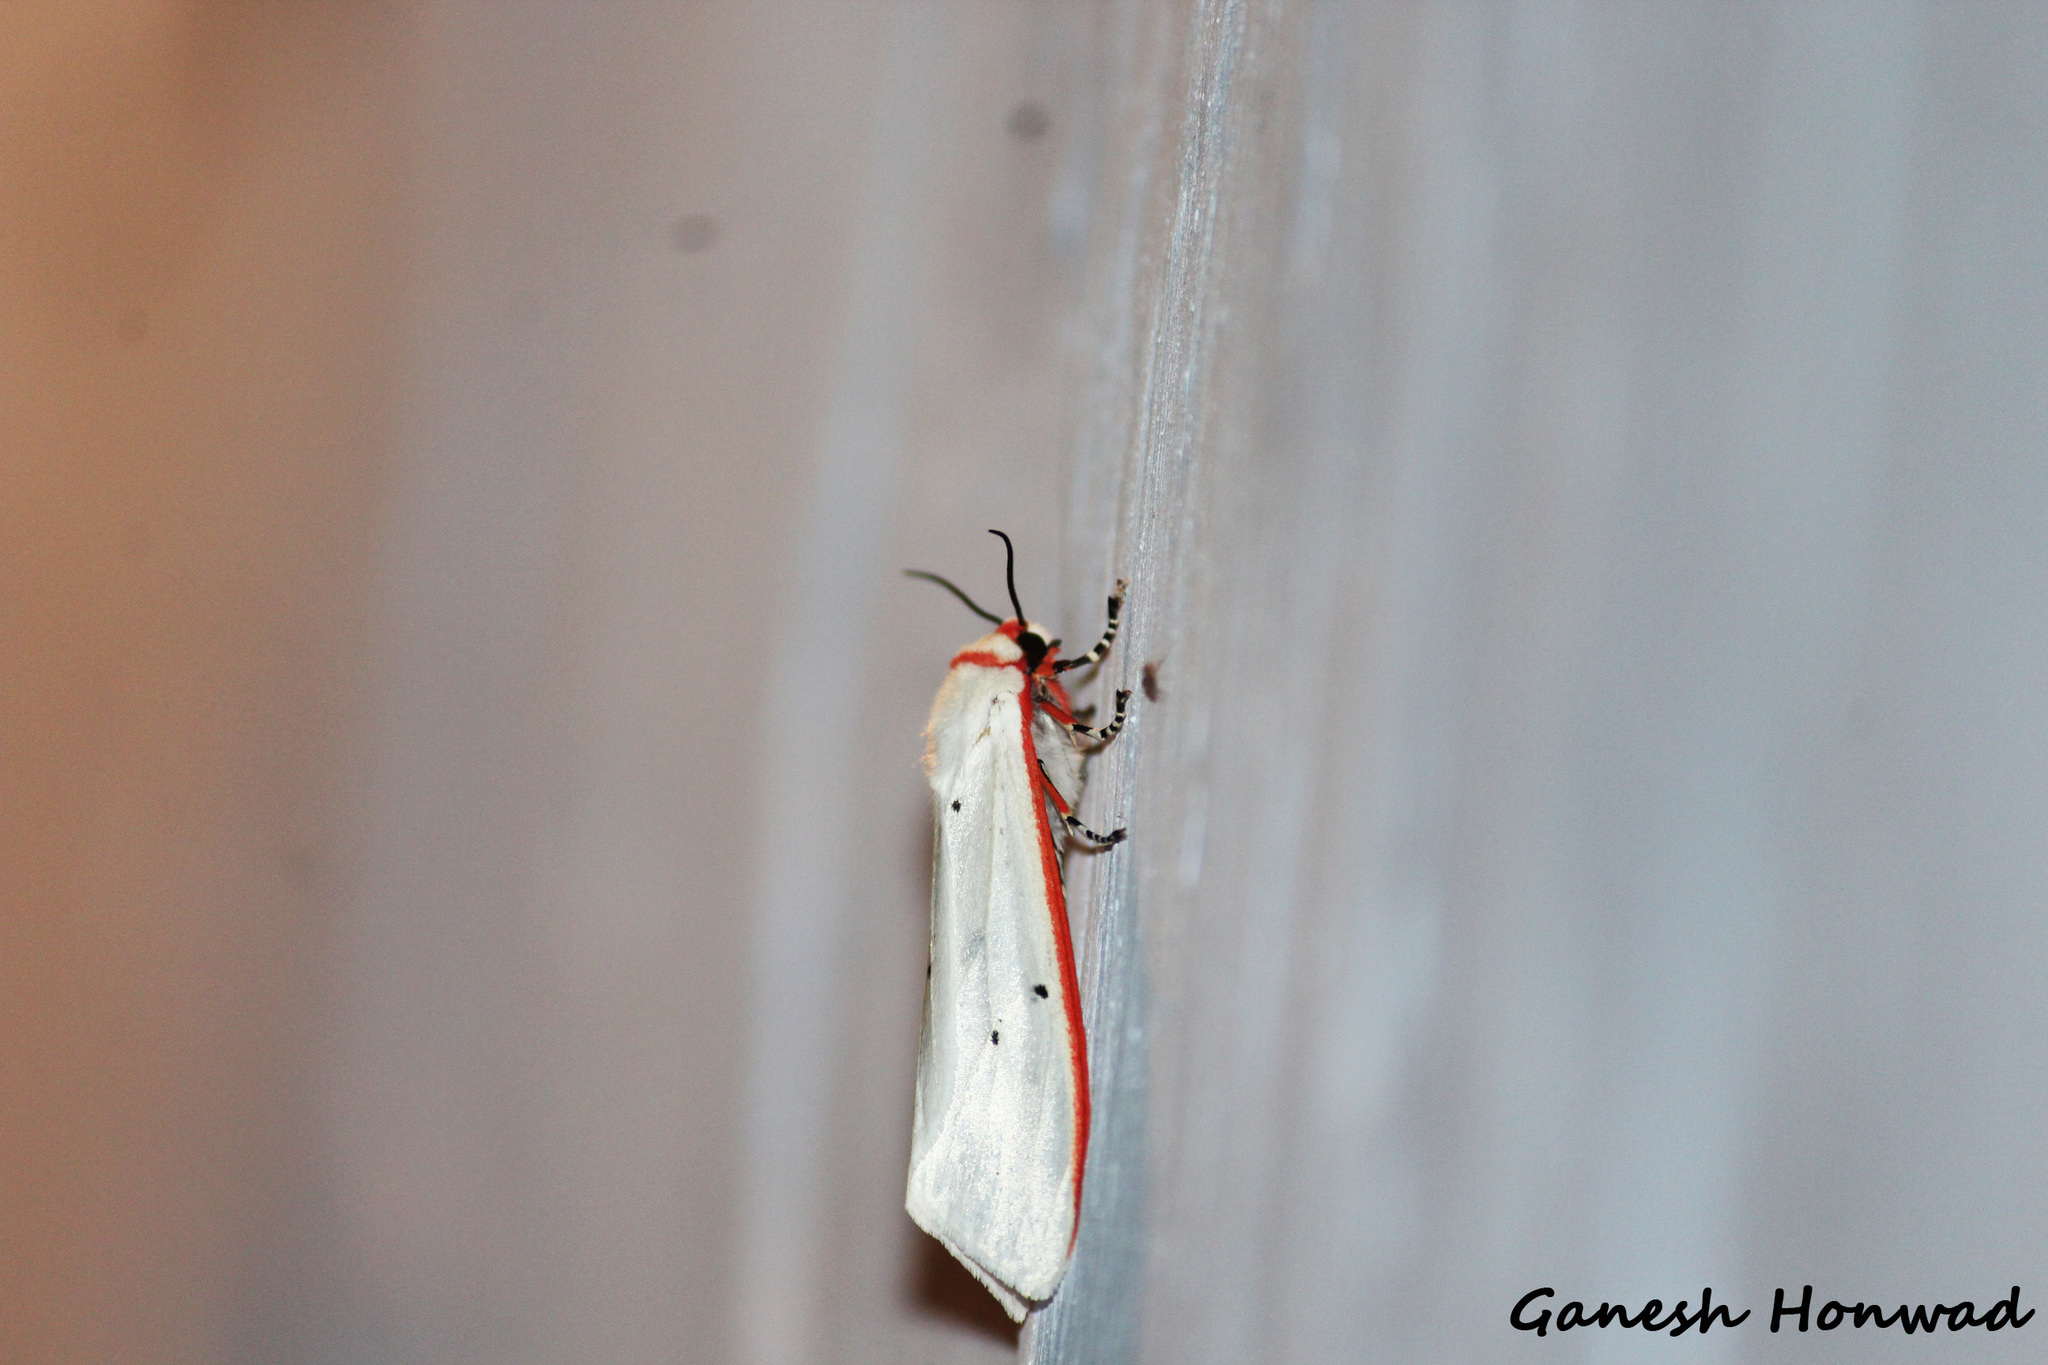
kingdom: Animalia
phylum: Arthropoda
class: Insecta
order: Lepidoptera
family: Erebidae
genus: Aloa
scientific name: Aloa lactinea
